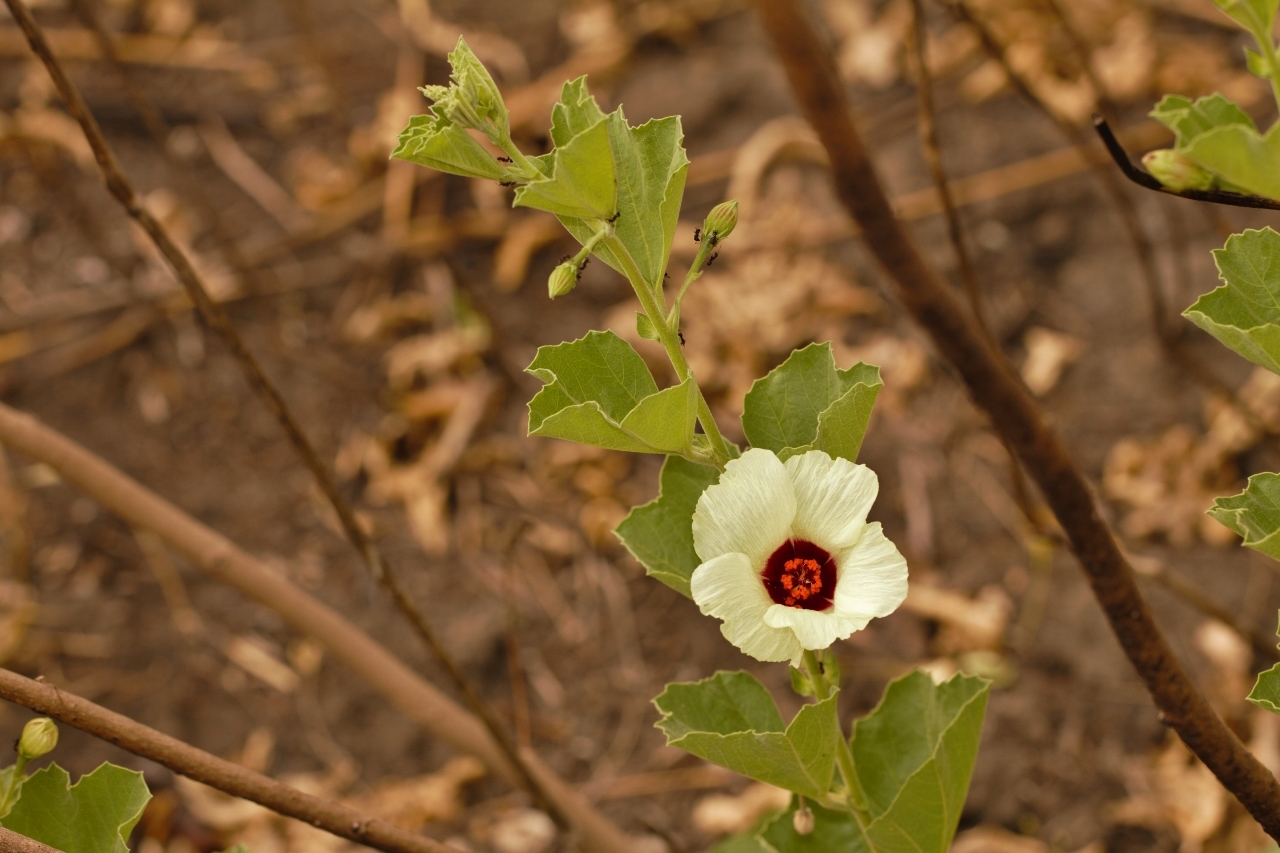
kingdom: Plantae
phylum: Tracheophyta
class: Magnoliopsida
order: Malvales
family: Malvaceae
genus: Cienfuegosia
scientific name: Cienfuegosia hildebrandtii
